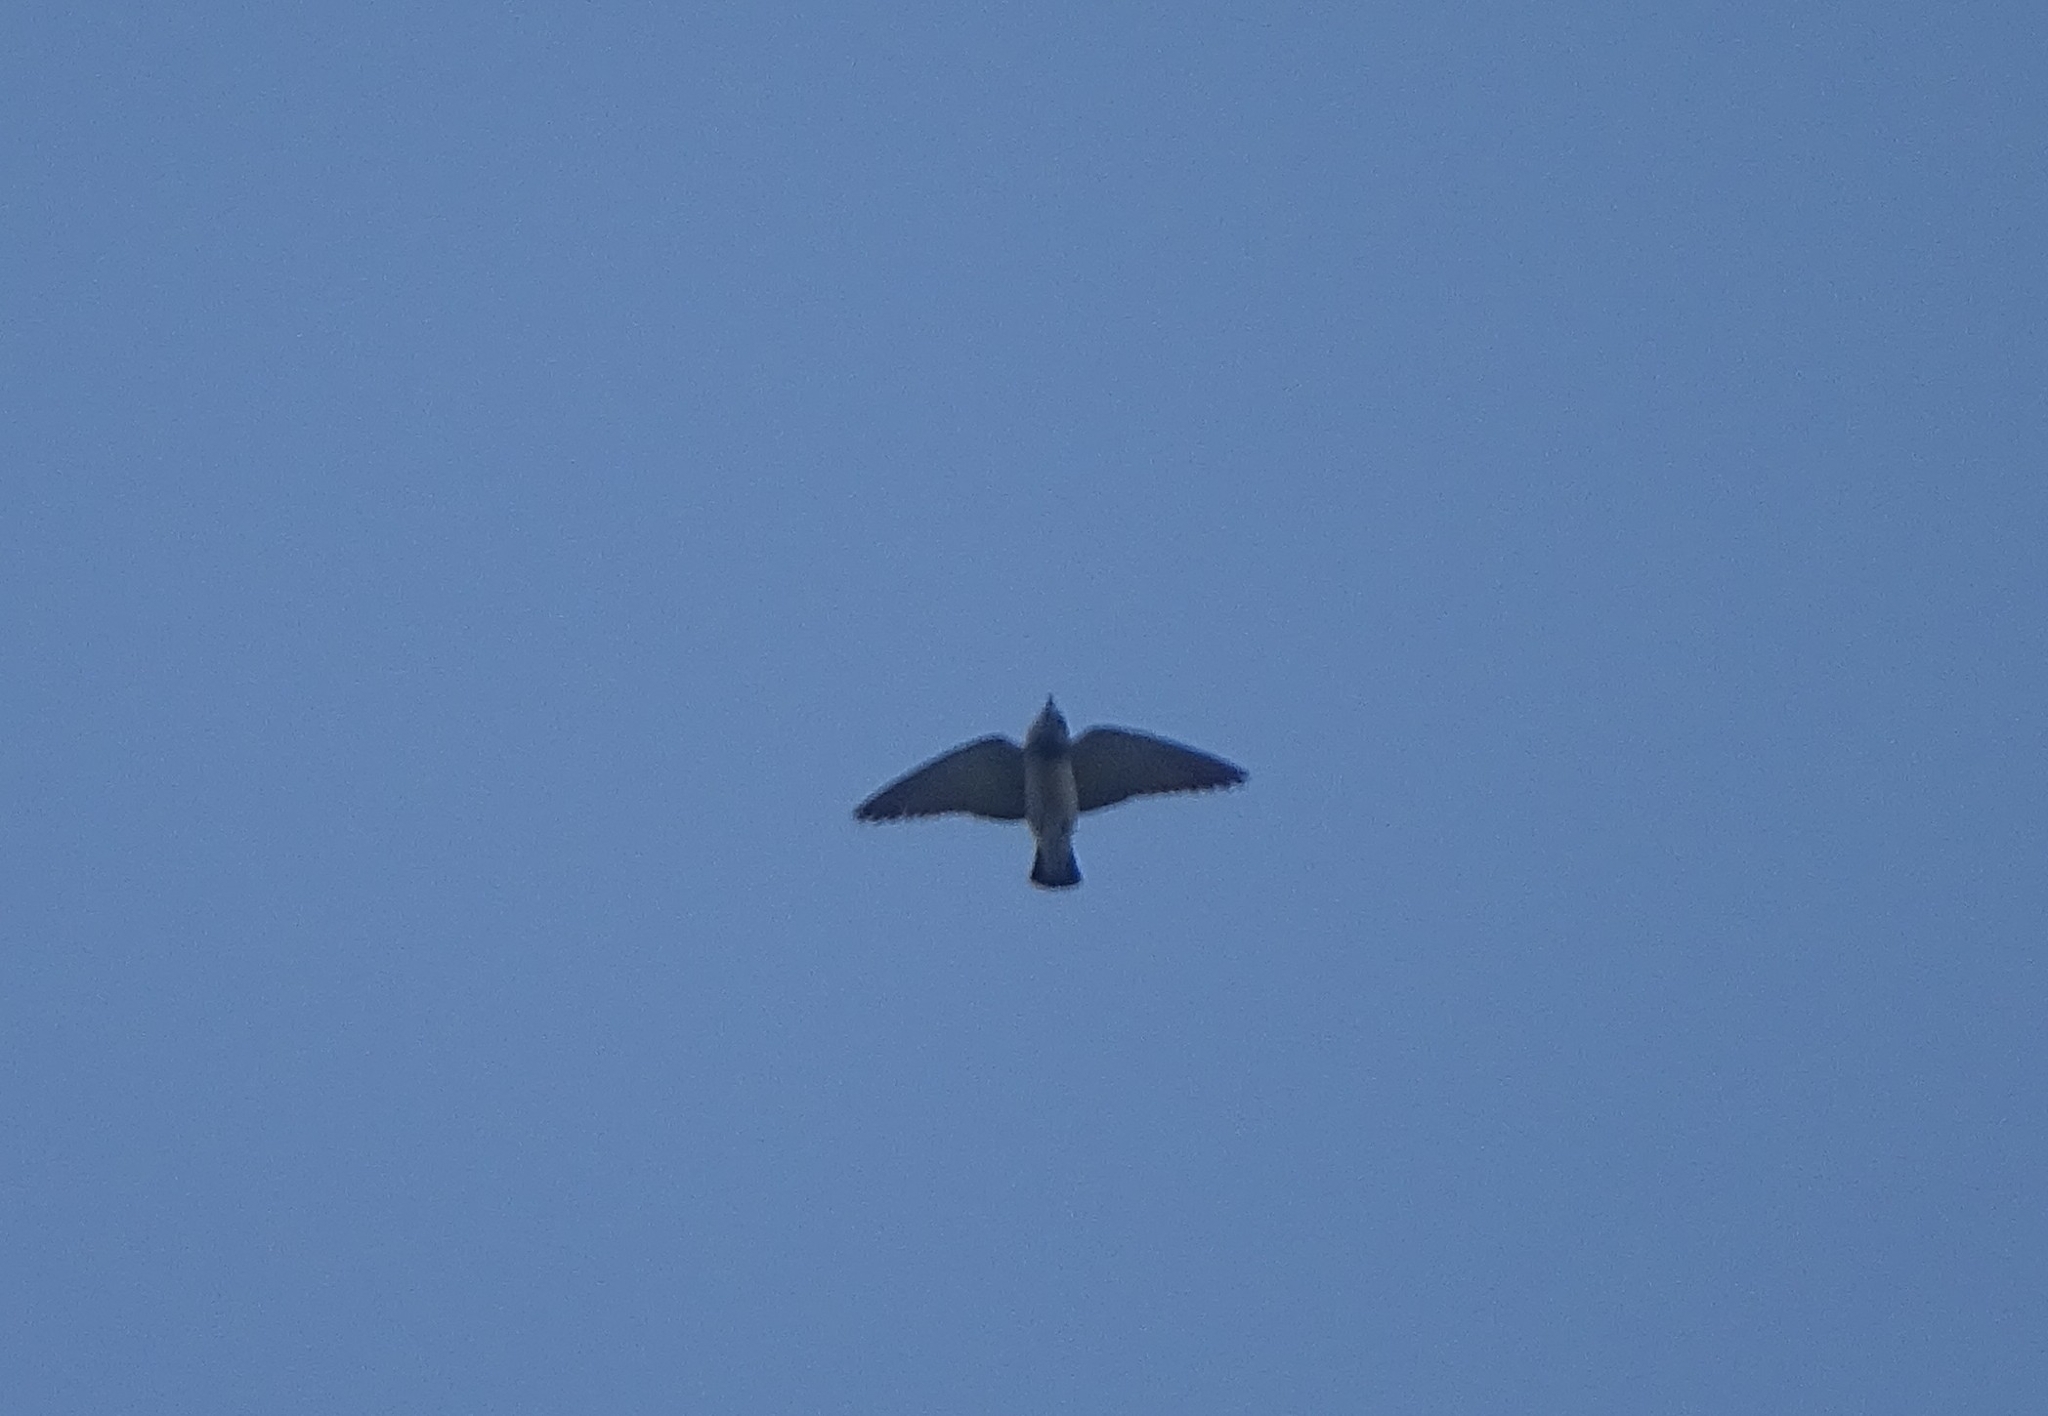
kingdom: Animalia
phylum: Chordata
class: Aves
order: Passeriformes
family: Artamidae
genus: Artamus
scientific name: Artamus fuscus
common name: Ashy woodswallow
